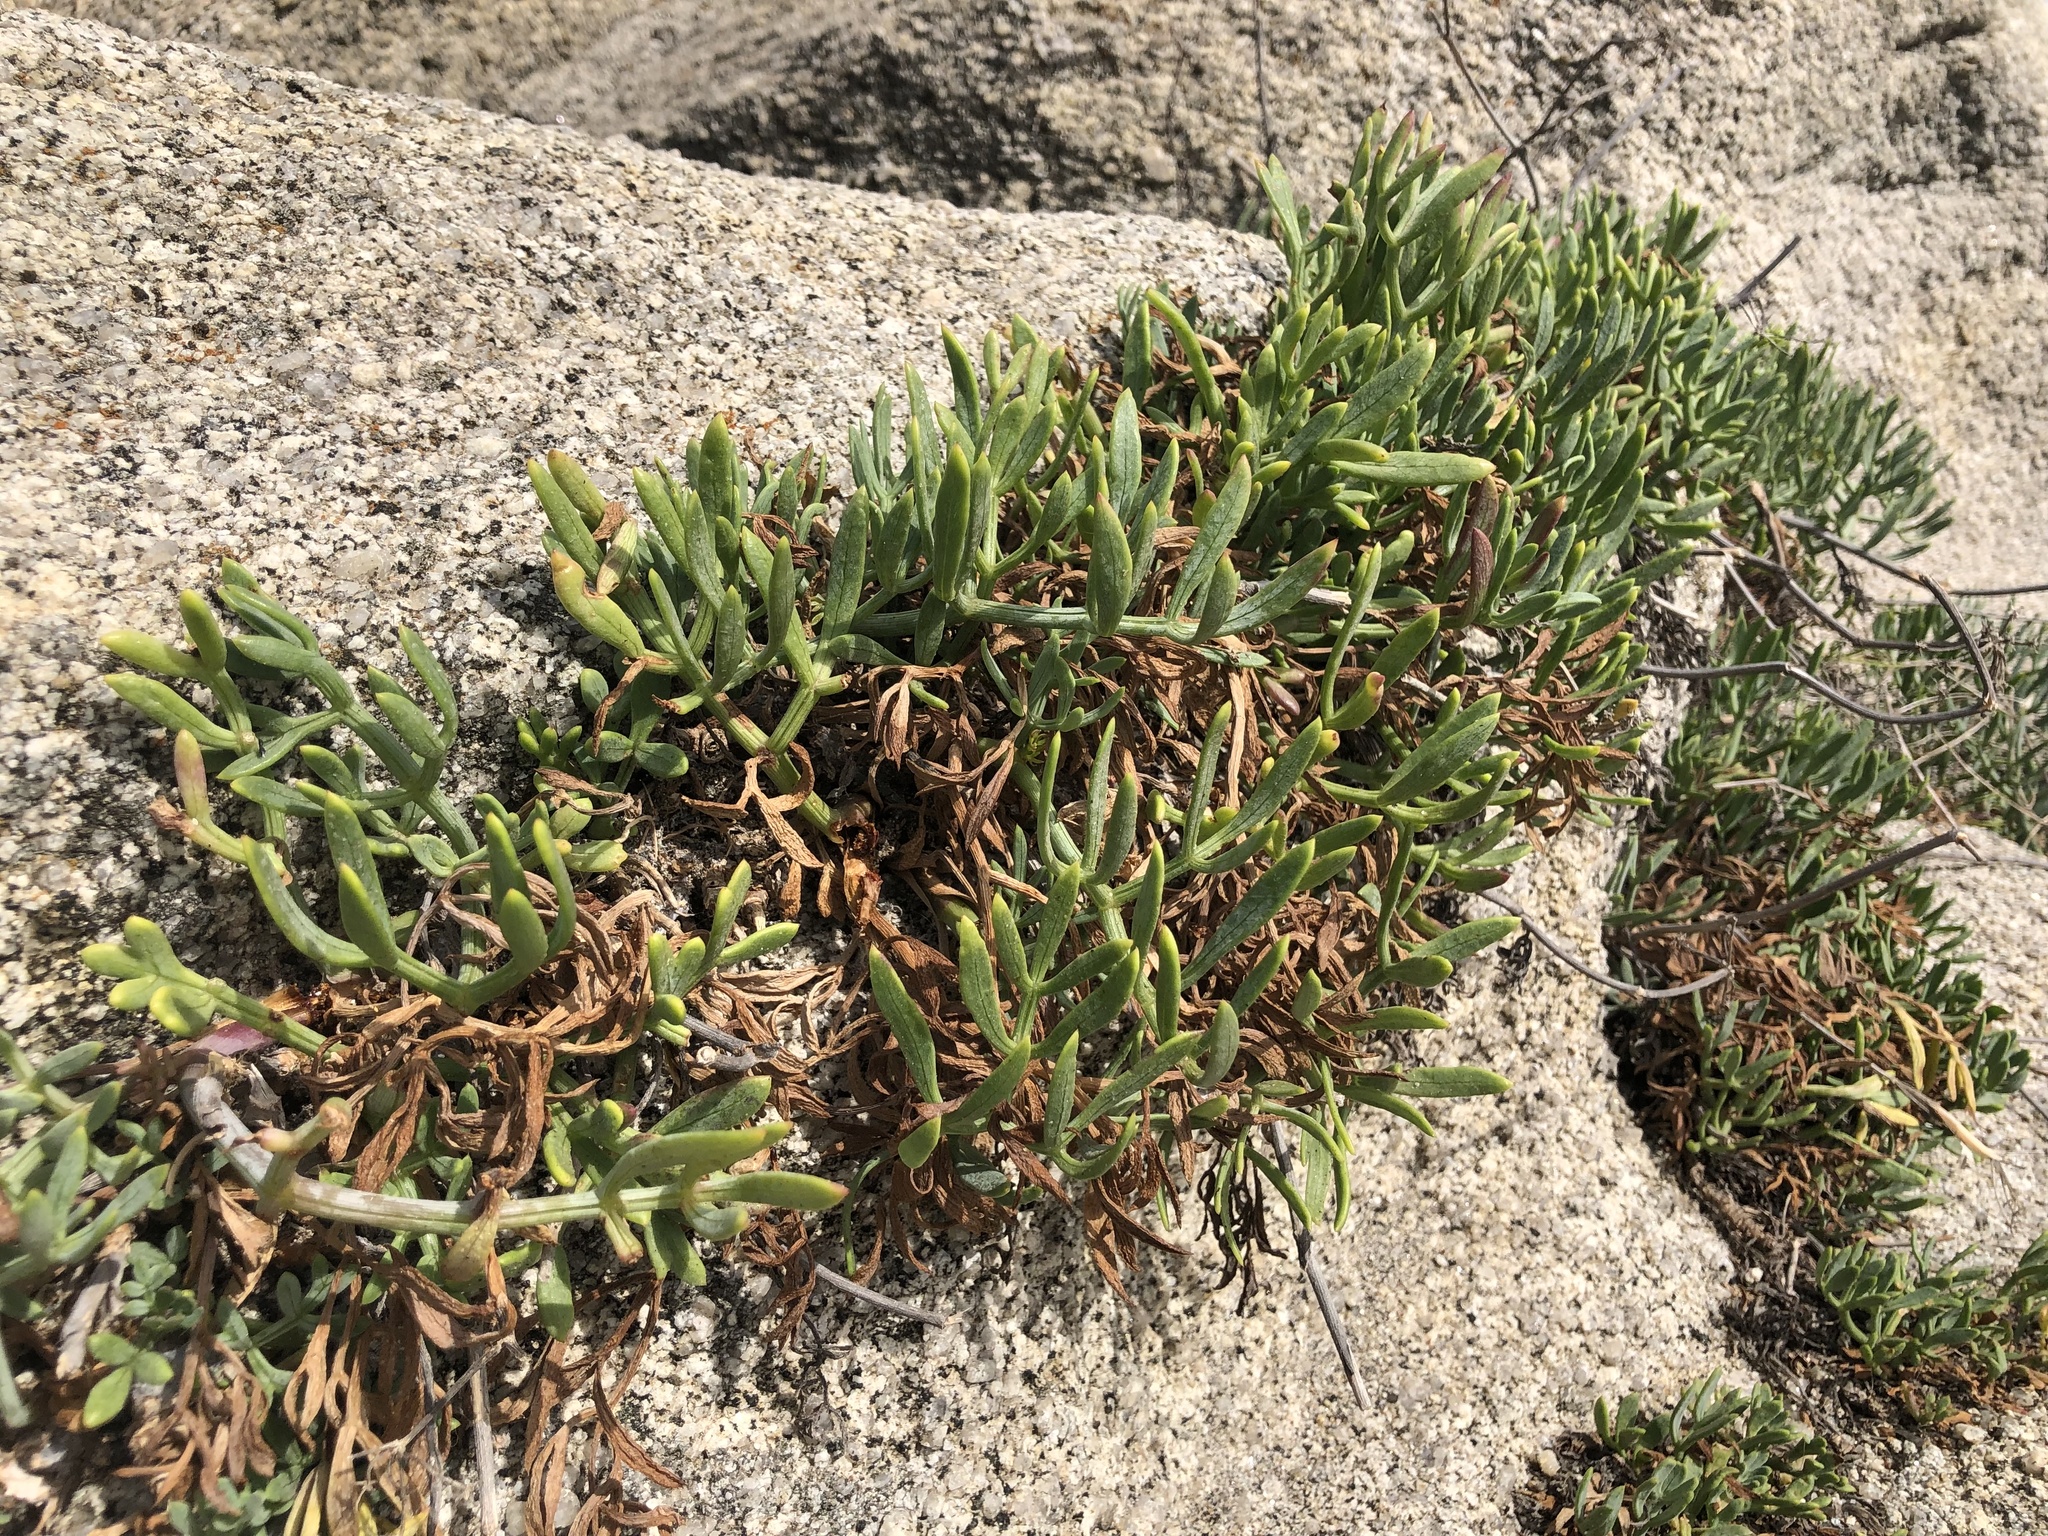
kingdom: Plantae
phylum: Tracheophyta
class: Magnoliopsida
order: Apiales
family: Apiaceae
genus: Crithmum
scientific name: Crithmum maritimum
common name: Rock samphire
